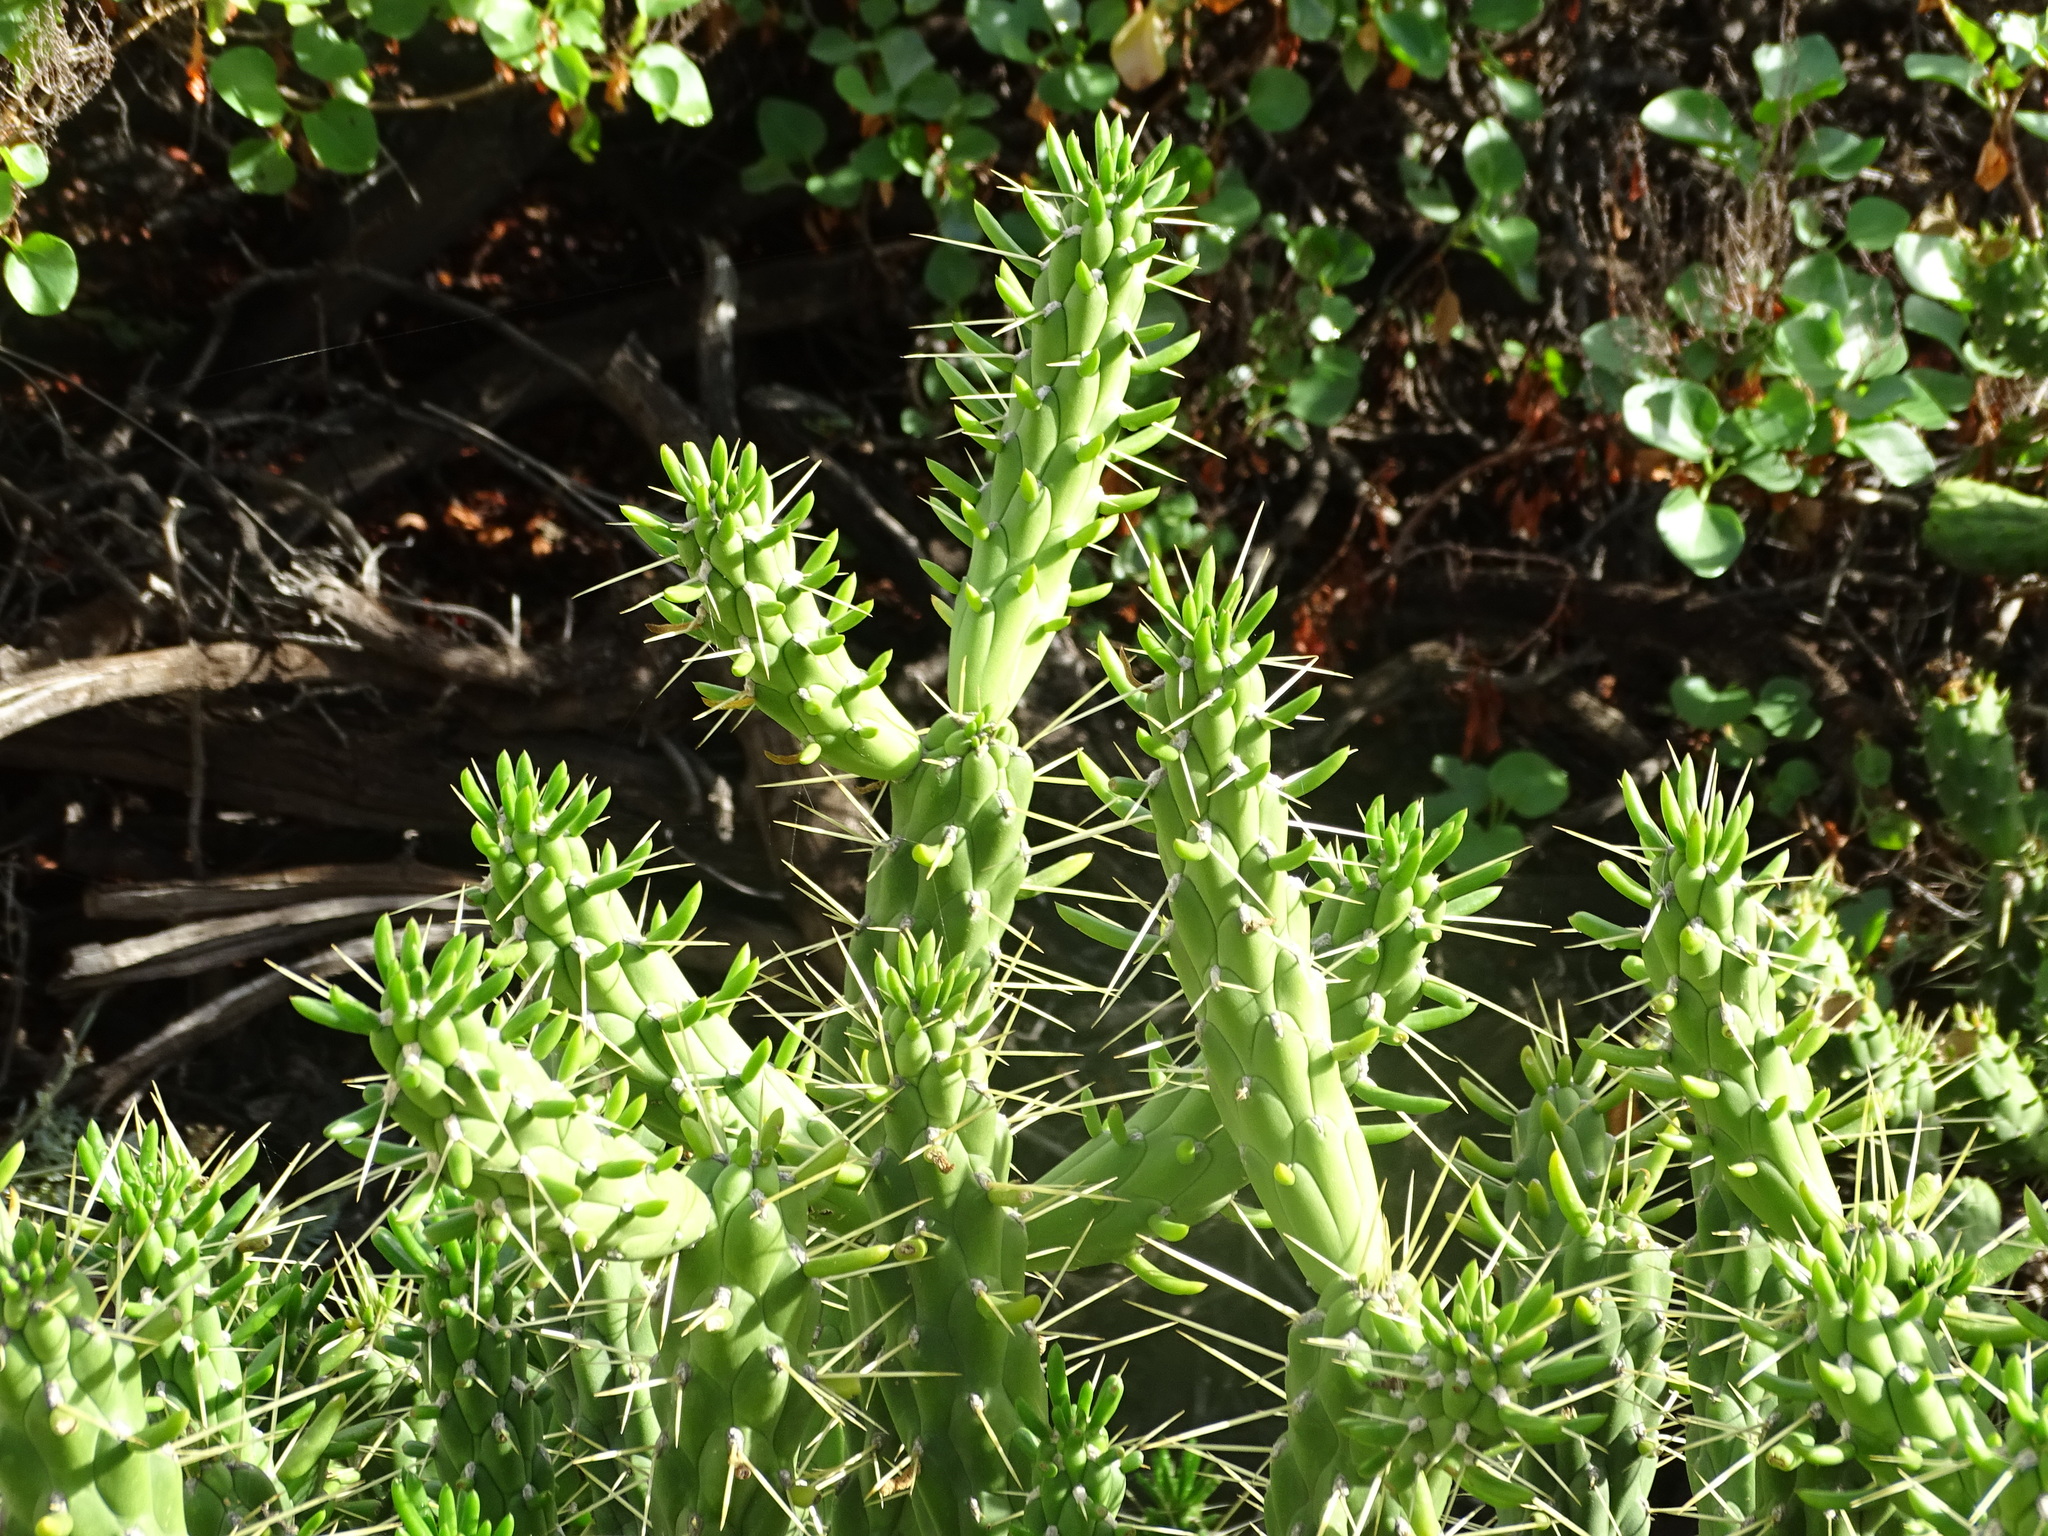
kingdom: Plantae
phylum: Tracheophyta
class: Magnoliopsida
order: Caryophyllales
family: Cactaceae
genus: Austrocylindropuntia
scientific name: Austrocylindropuntia subulata
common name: Eve's needle cactus
